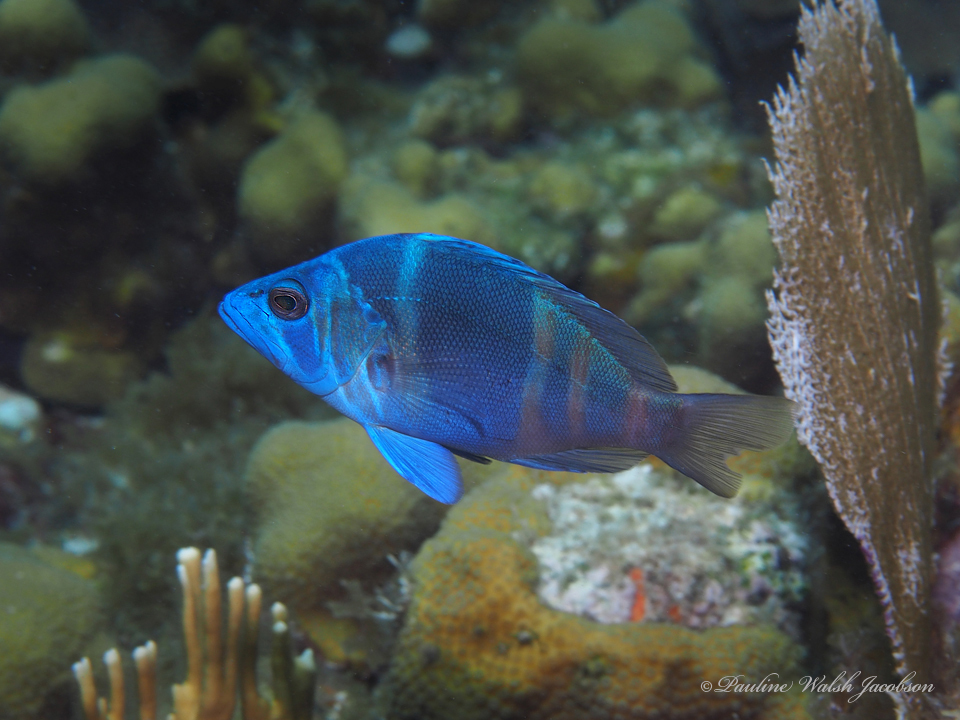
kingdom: Animalia
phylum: Chordata
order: Perciformes
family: Serranidae
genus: Hypoplectrus
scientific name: Hypoplectrus indigo
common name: Indigo hamlet
